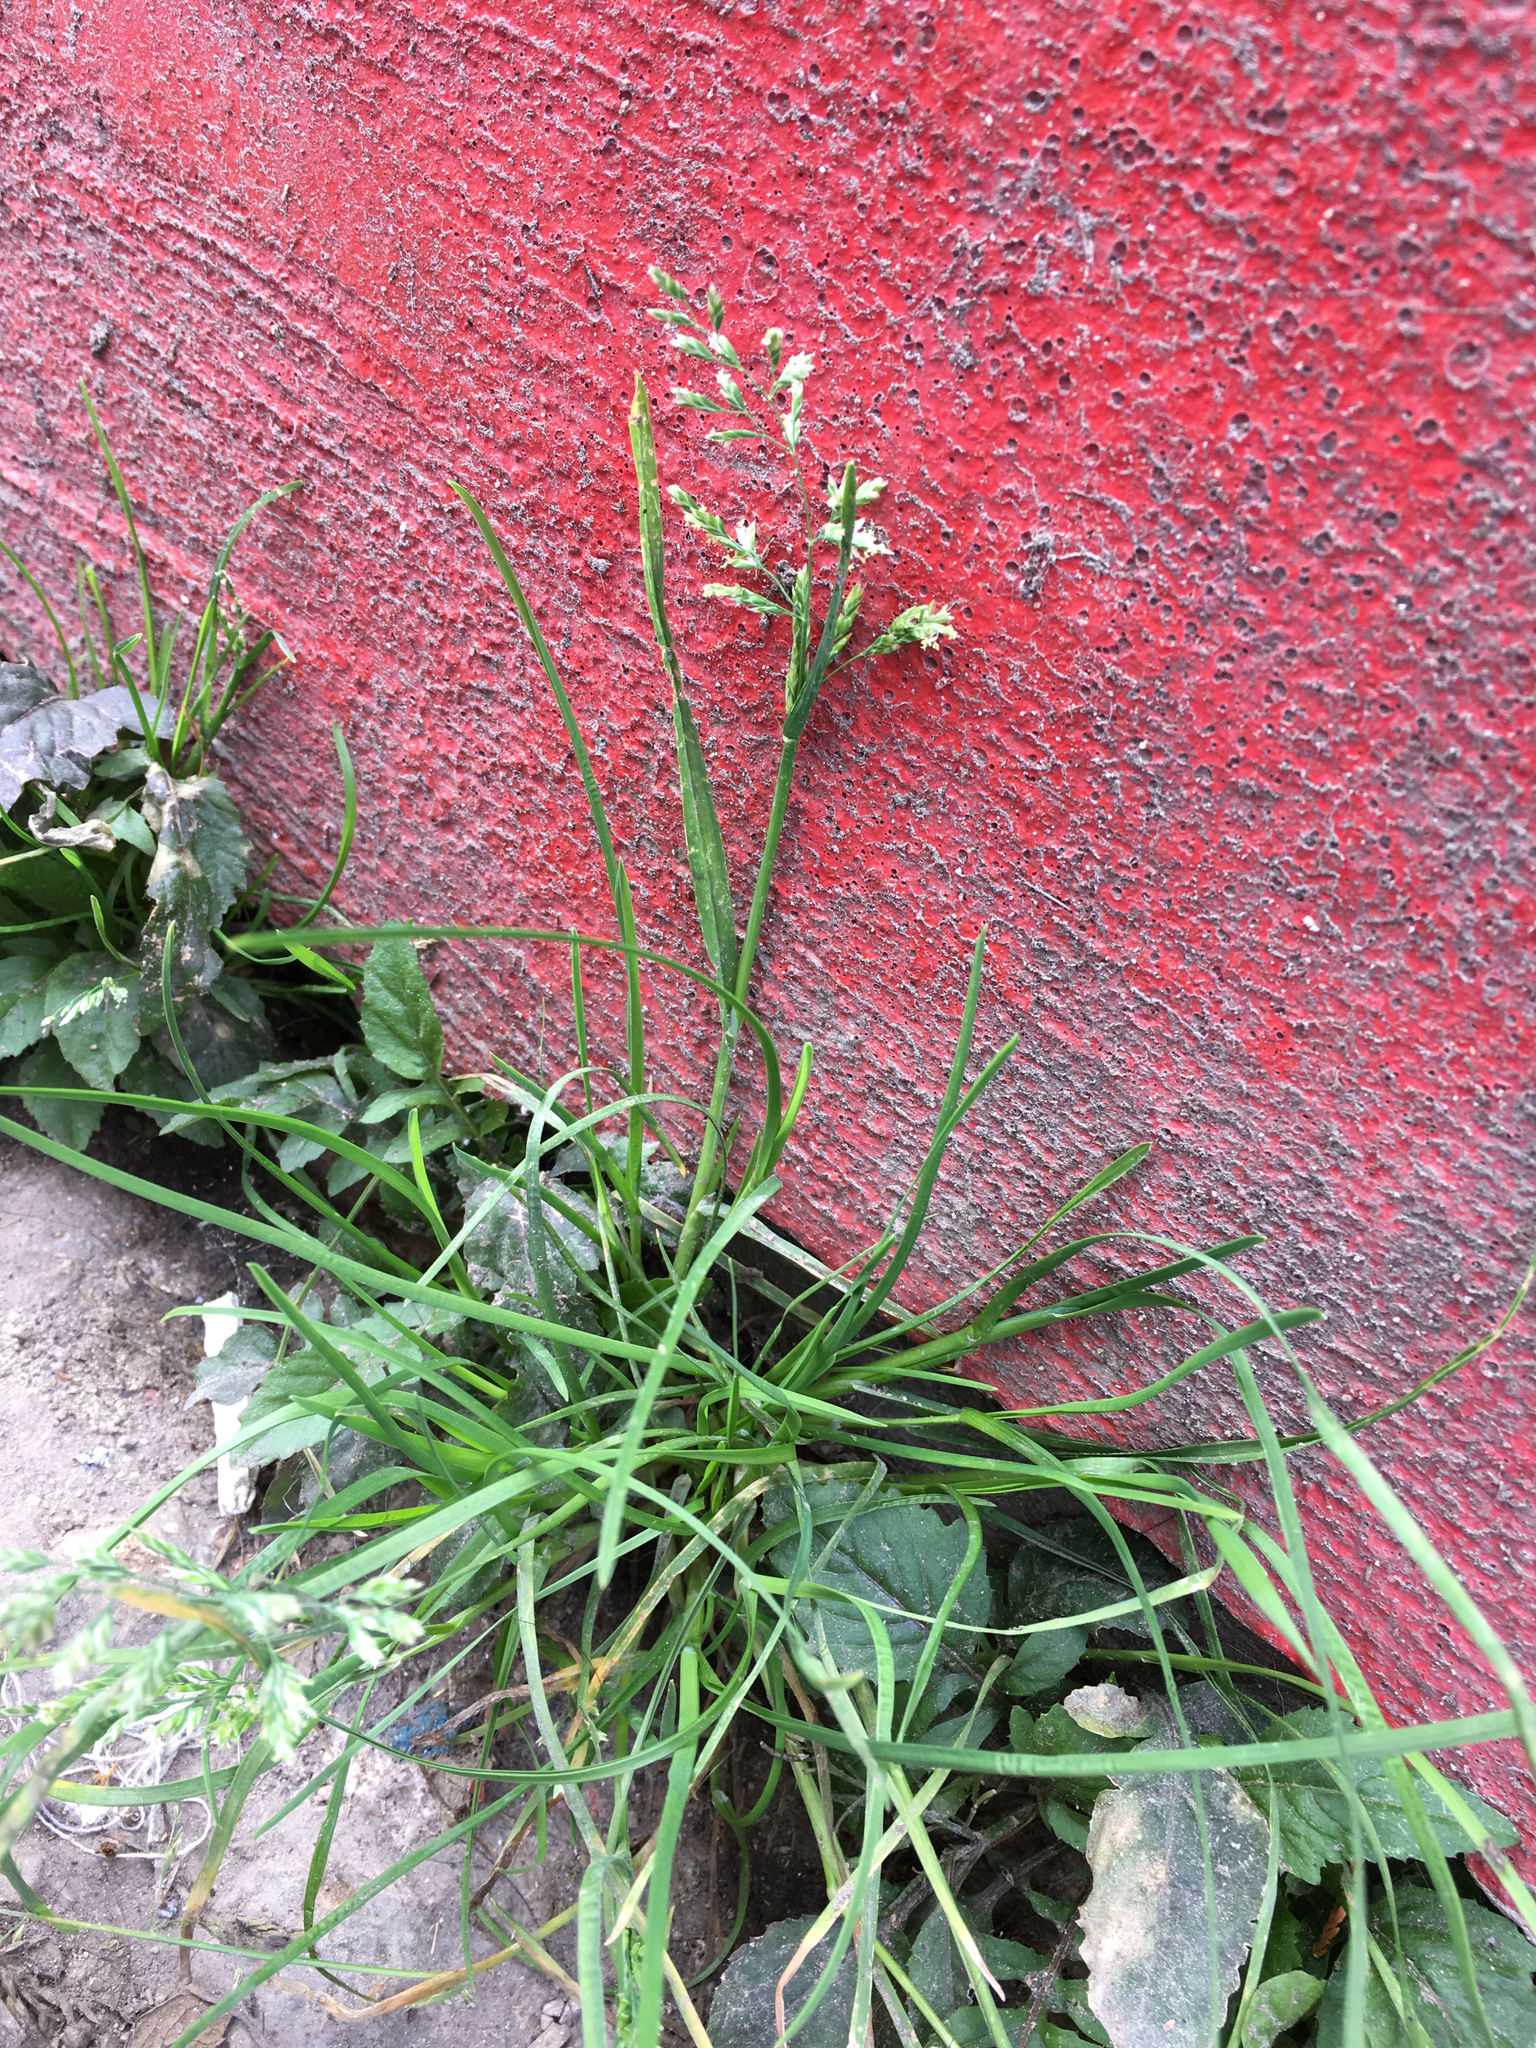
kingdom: Plantae
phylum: Tracheophyta
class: Liliopsida
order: Poales
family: Poaceae
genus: Poa
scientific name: Poa annua
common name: Annual bluegrass
